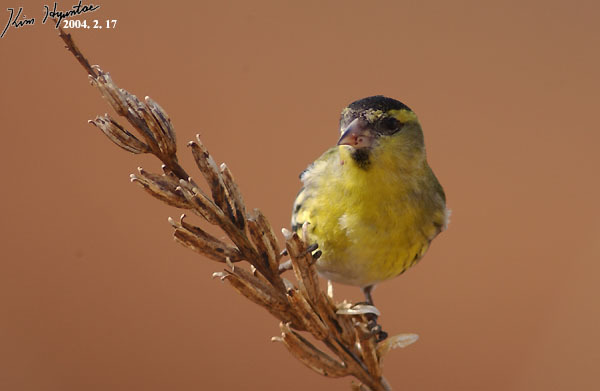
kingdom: Animalia
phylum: Chordata
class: Aves
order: Passeriformes
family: Fringillidae
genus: Spinus
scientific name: Spinus spinus
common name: Eurasian siskin
